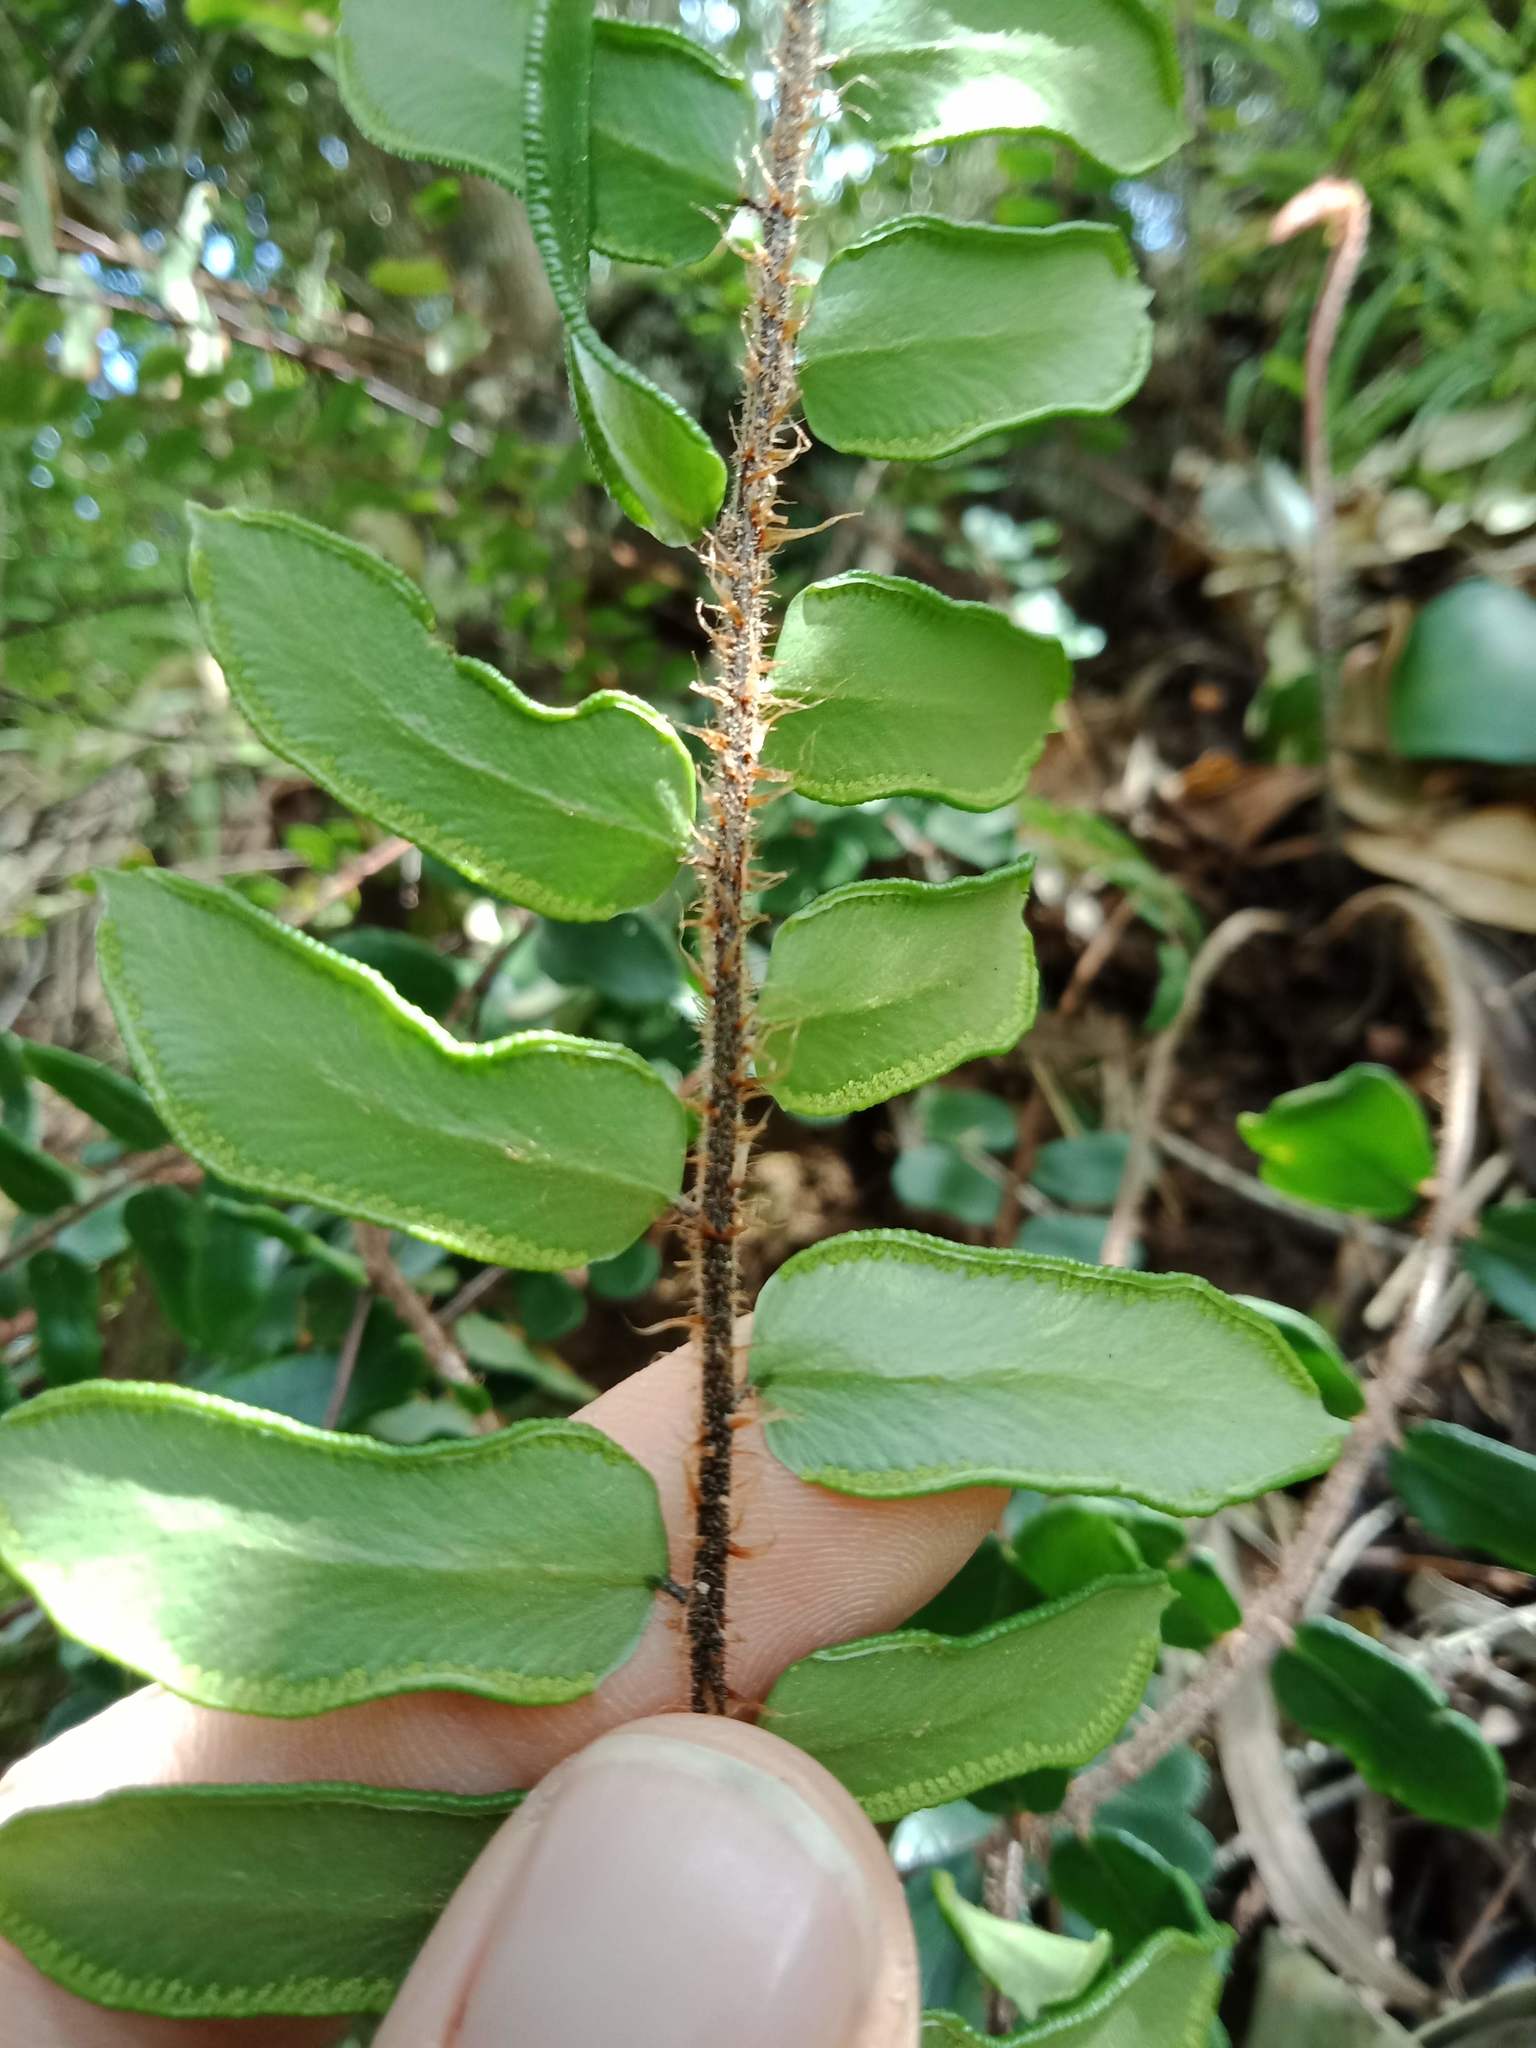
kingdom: Plantae
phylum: Tracheophyta
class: Polypodiopsida
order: Polypodiales
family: Pteridaceae
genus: Pellaea
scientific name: Pellaea rotundifolia
